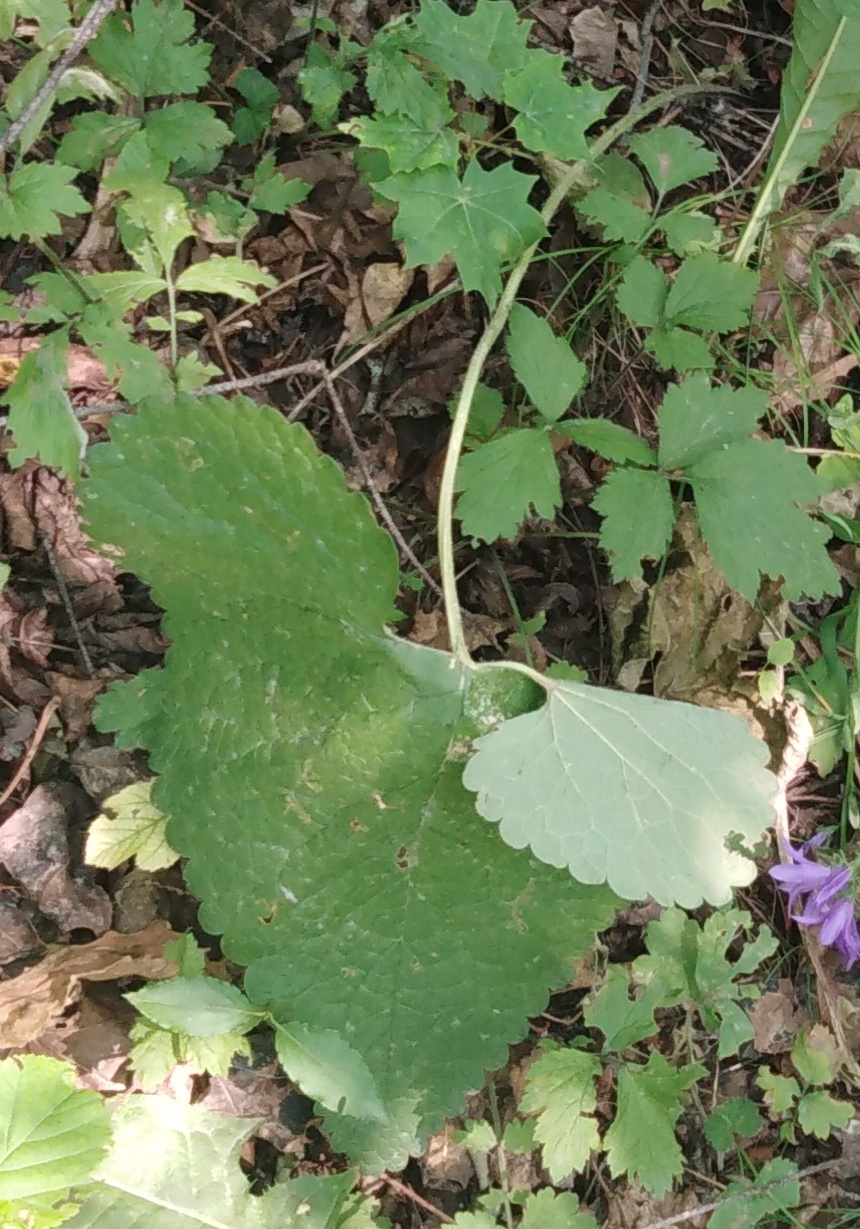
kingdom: Plantae
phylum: Tracheophyta
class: Magnoliopsida
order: Lamiales
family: Lamiaceae
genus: Phlomoides
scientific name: Phlomoides tuberosa
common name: Tuberous jerusalem sage
